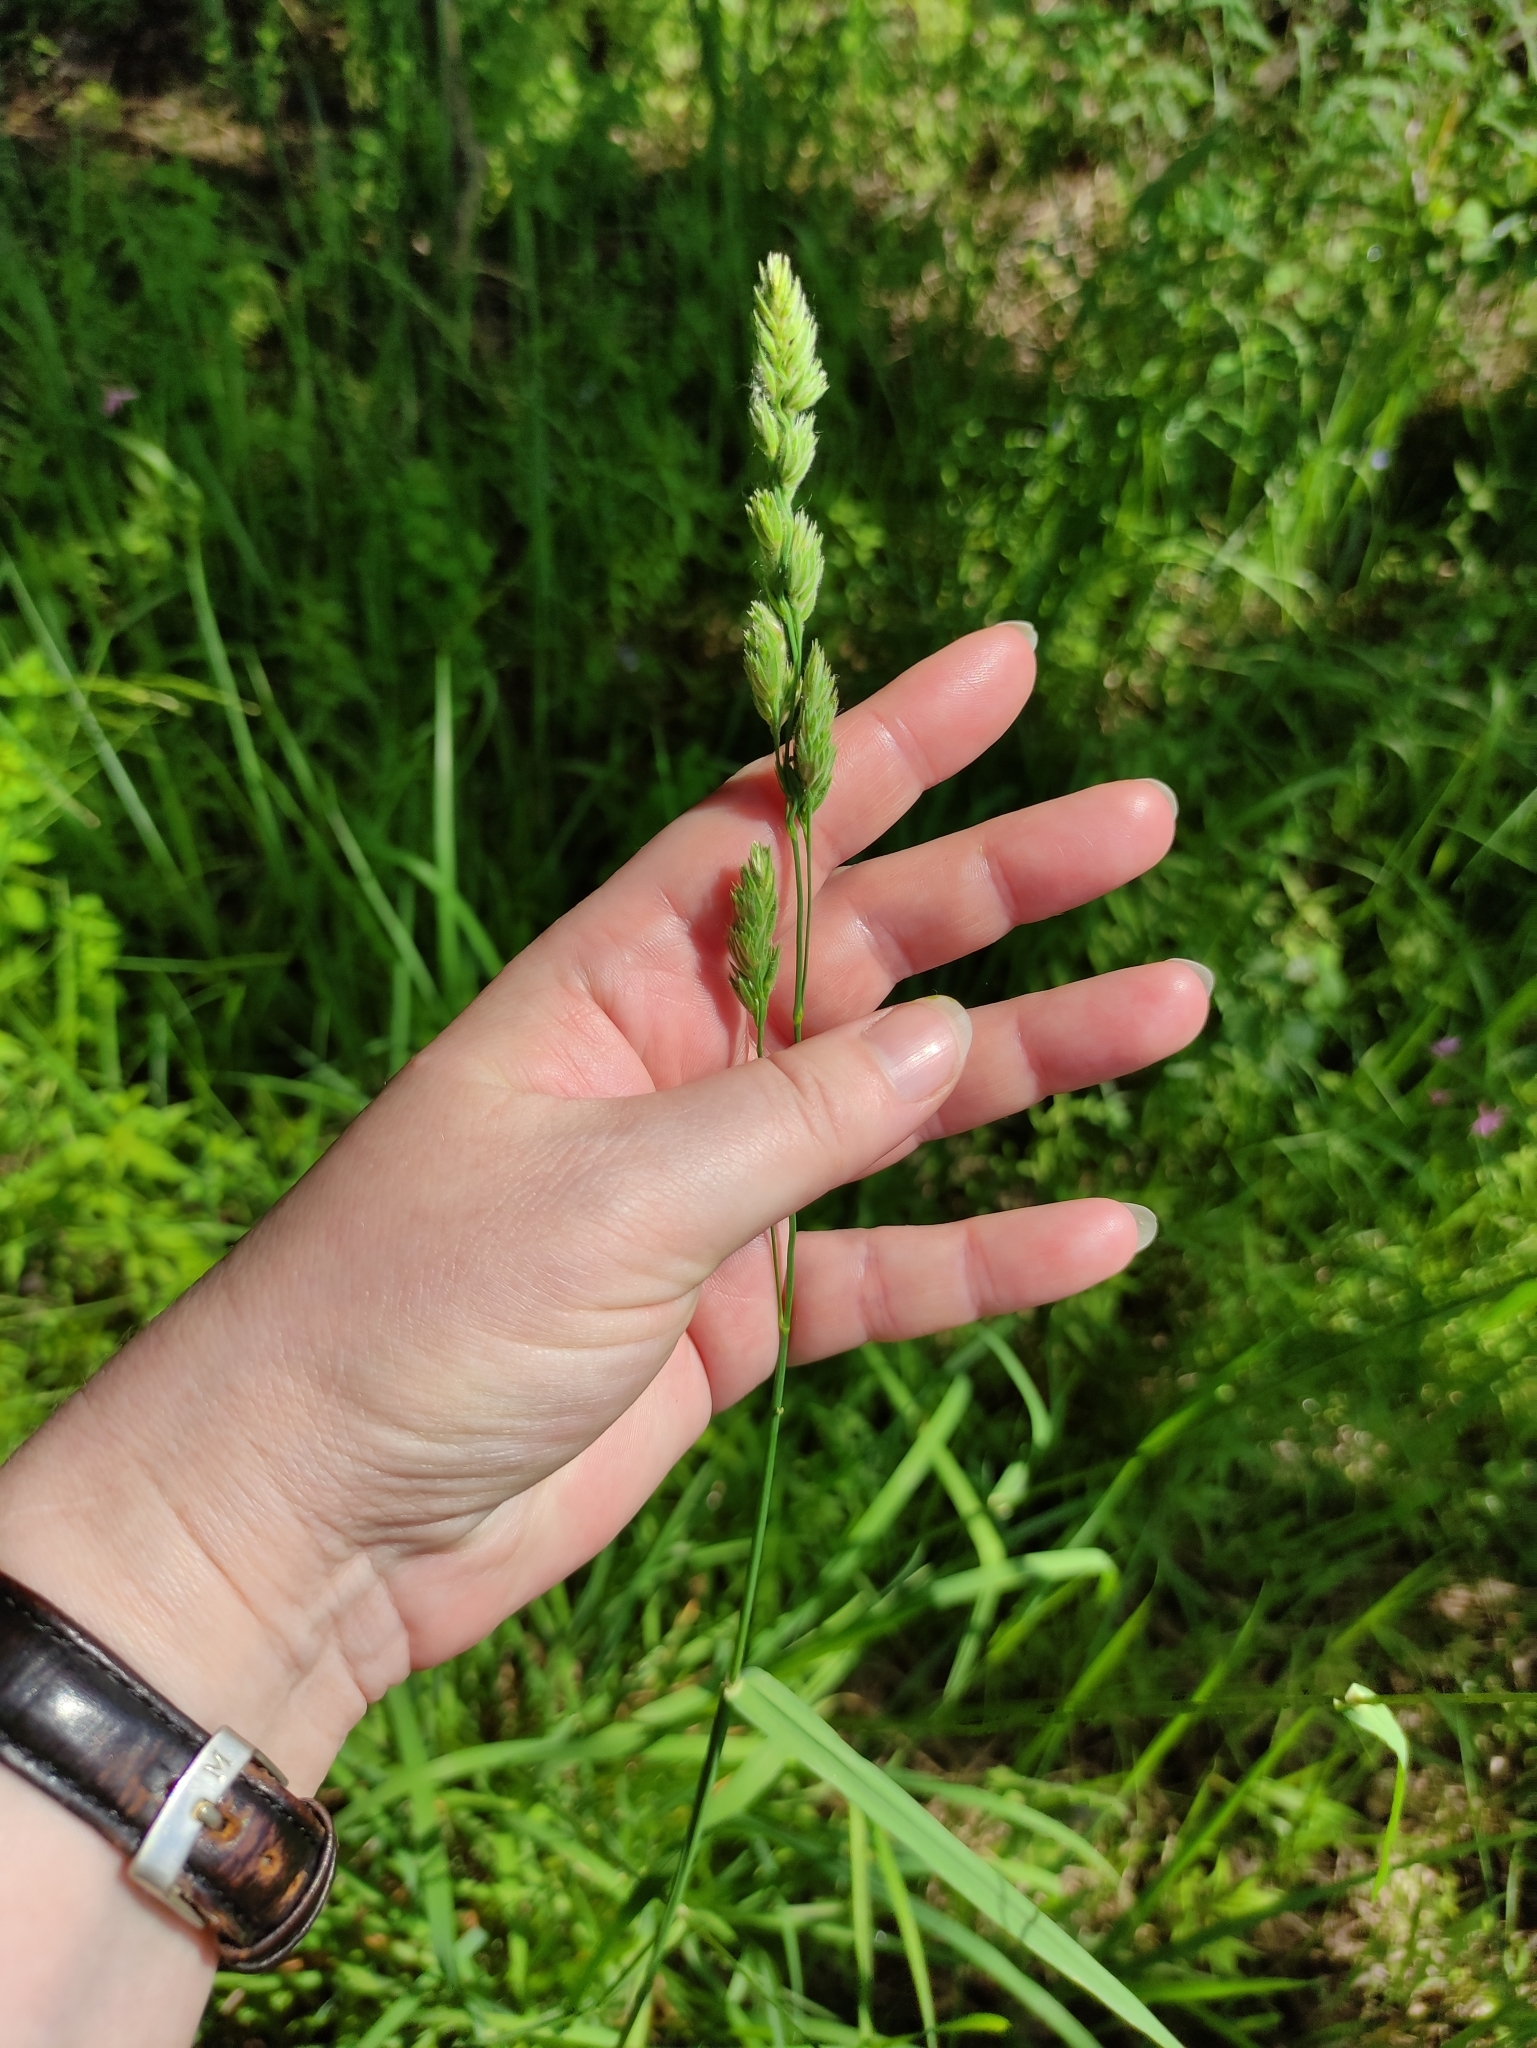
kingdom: Plantae
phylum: Tracheophyta
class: Liliopsida
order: Poales
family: Poaceae
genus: Dactylis
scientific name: Dactylis glomerata
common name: Orchardgrass
